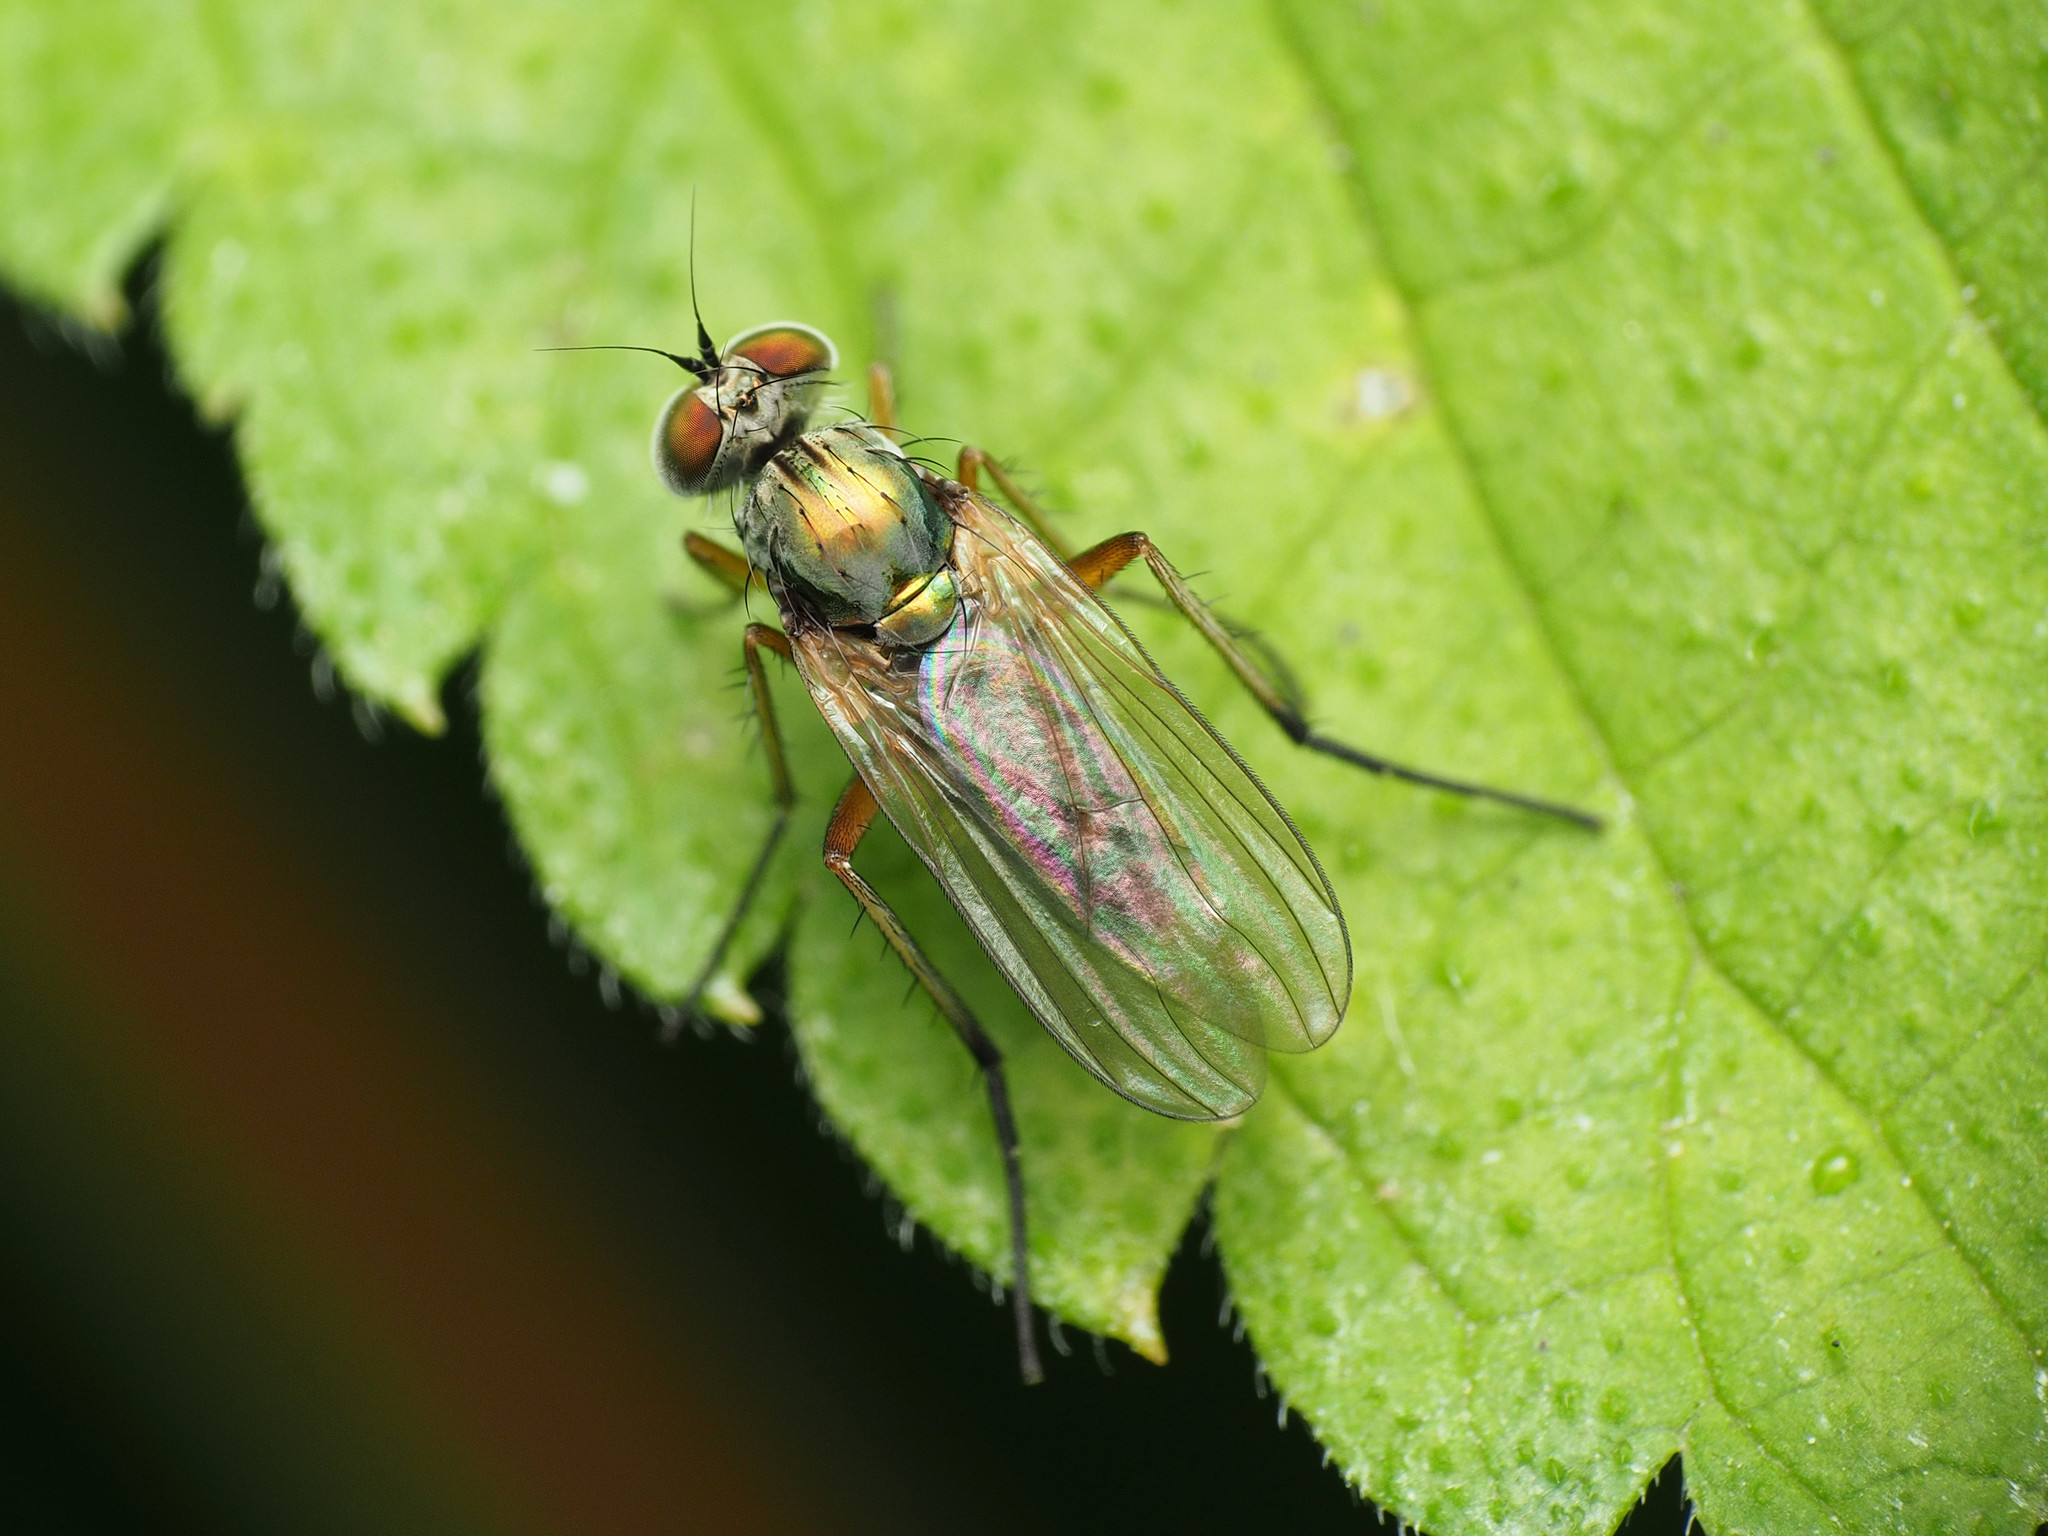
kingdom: Animalia
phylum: Arthropoda
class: Insecta
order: Diptera
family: Dolichopodidae
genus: Rhaphium
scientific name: Rhaphium rotundiceps
